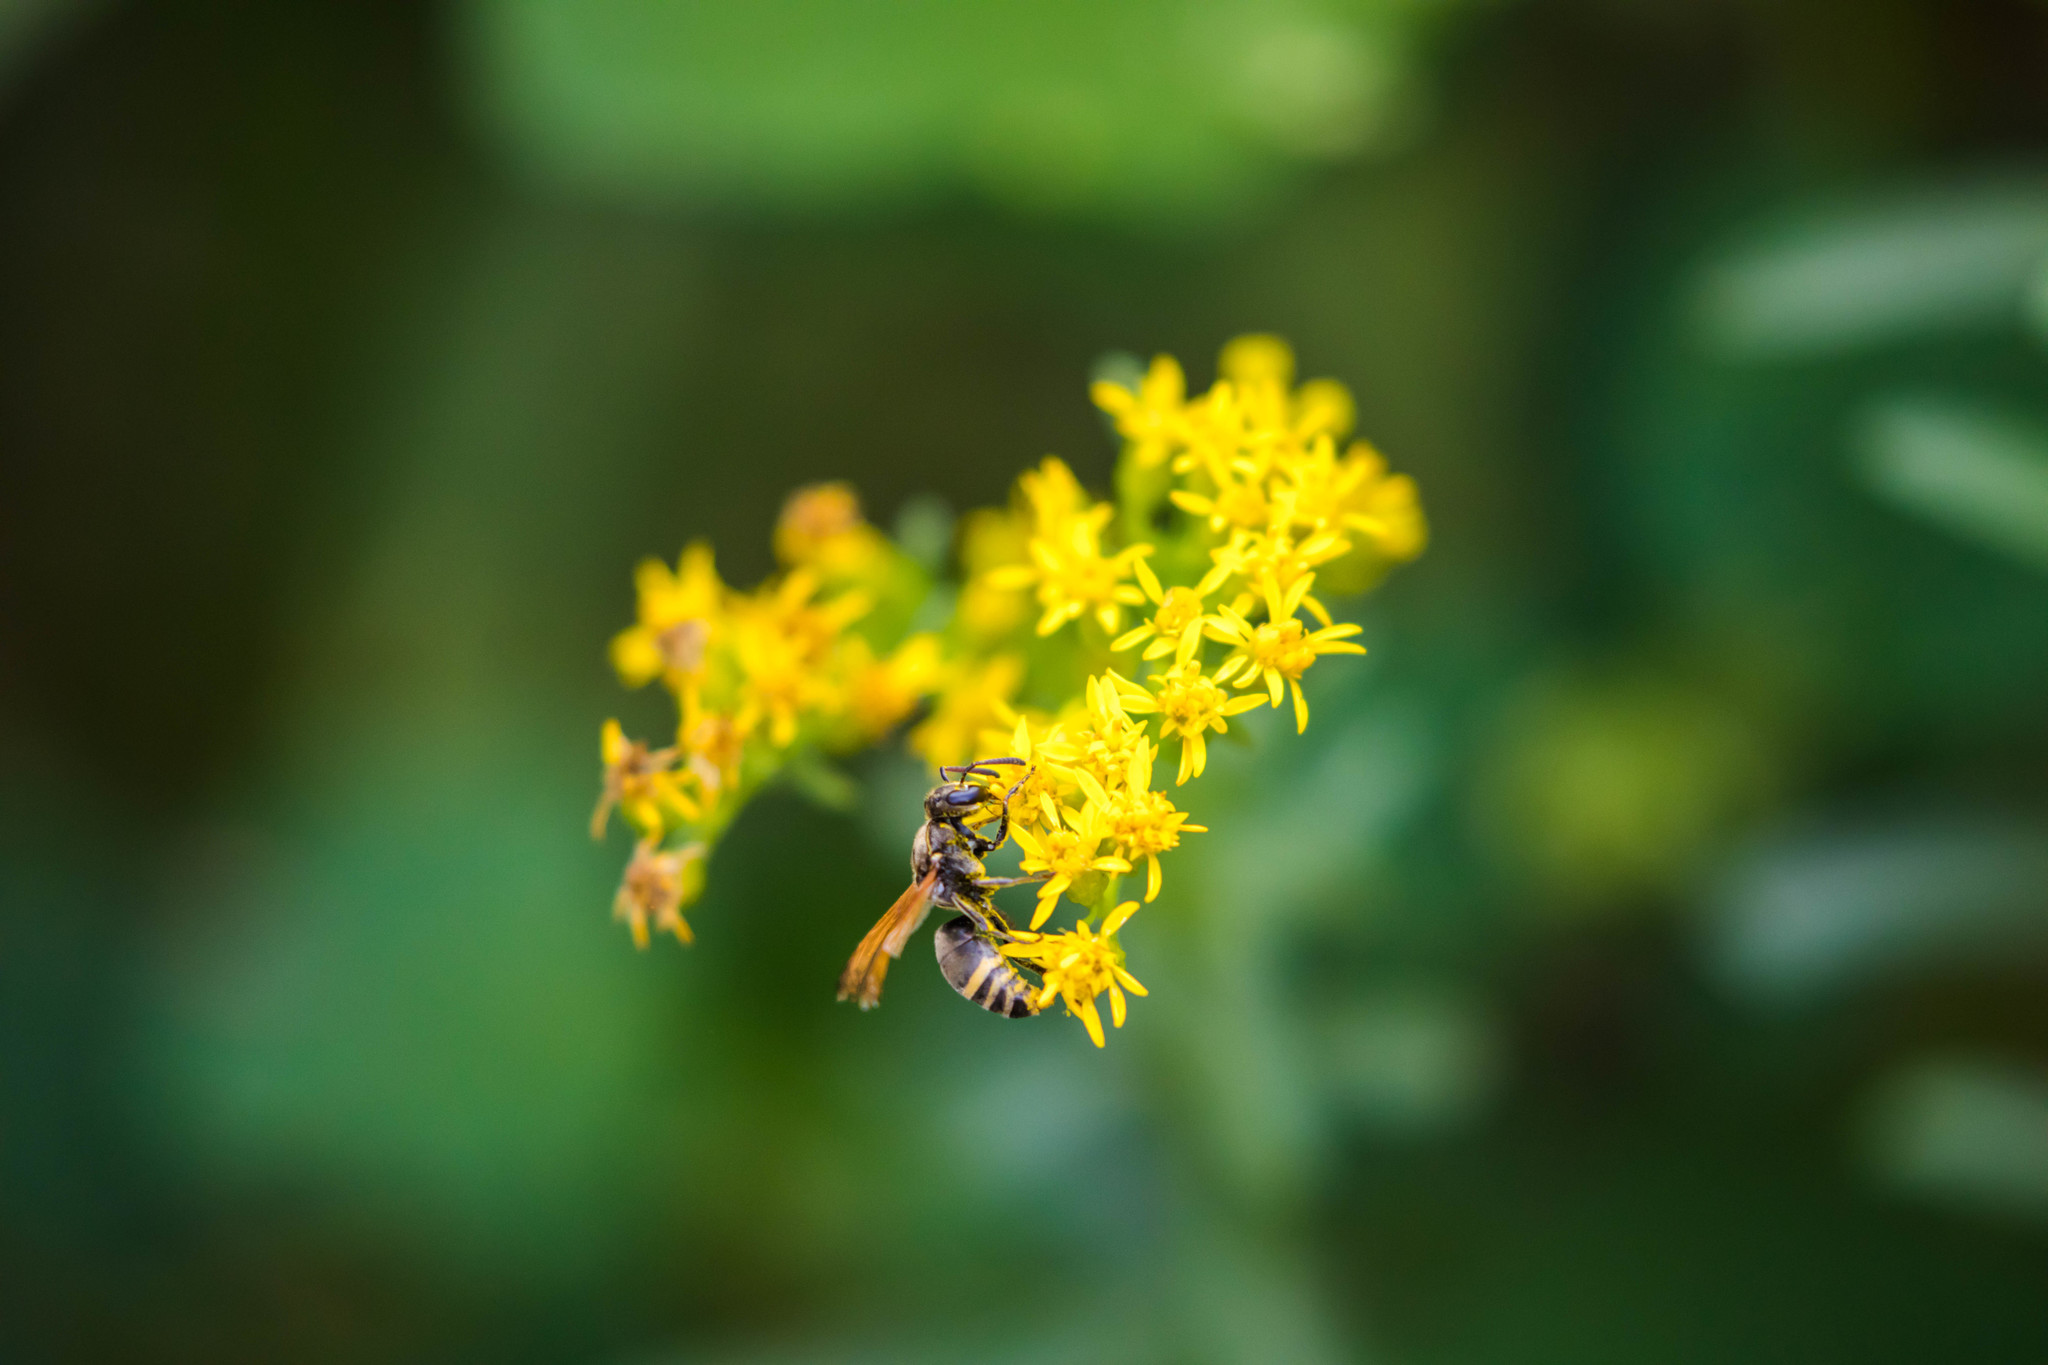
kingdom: Animalia
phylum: Arthropoda
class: Insecta
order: Hymenoptera
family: Eumenidae
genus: Pachodynerus
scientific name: Pachodynerus
